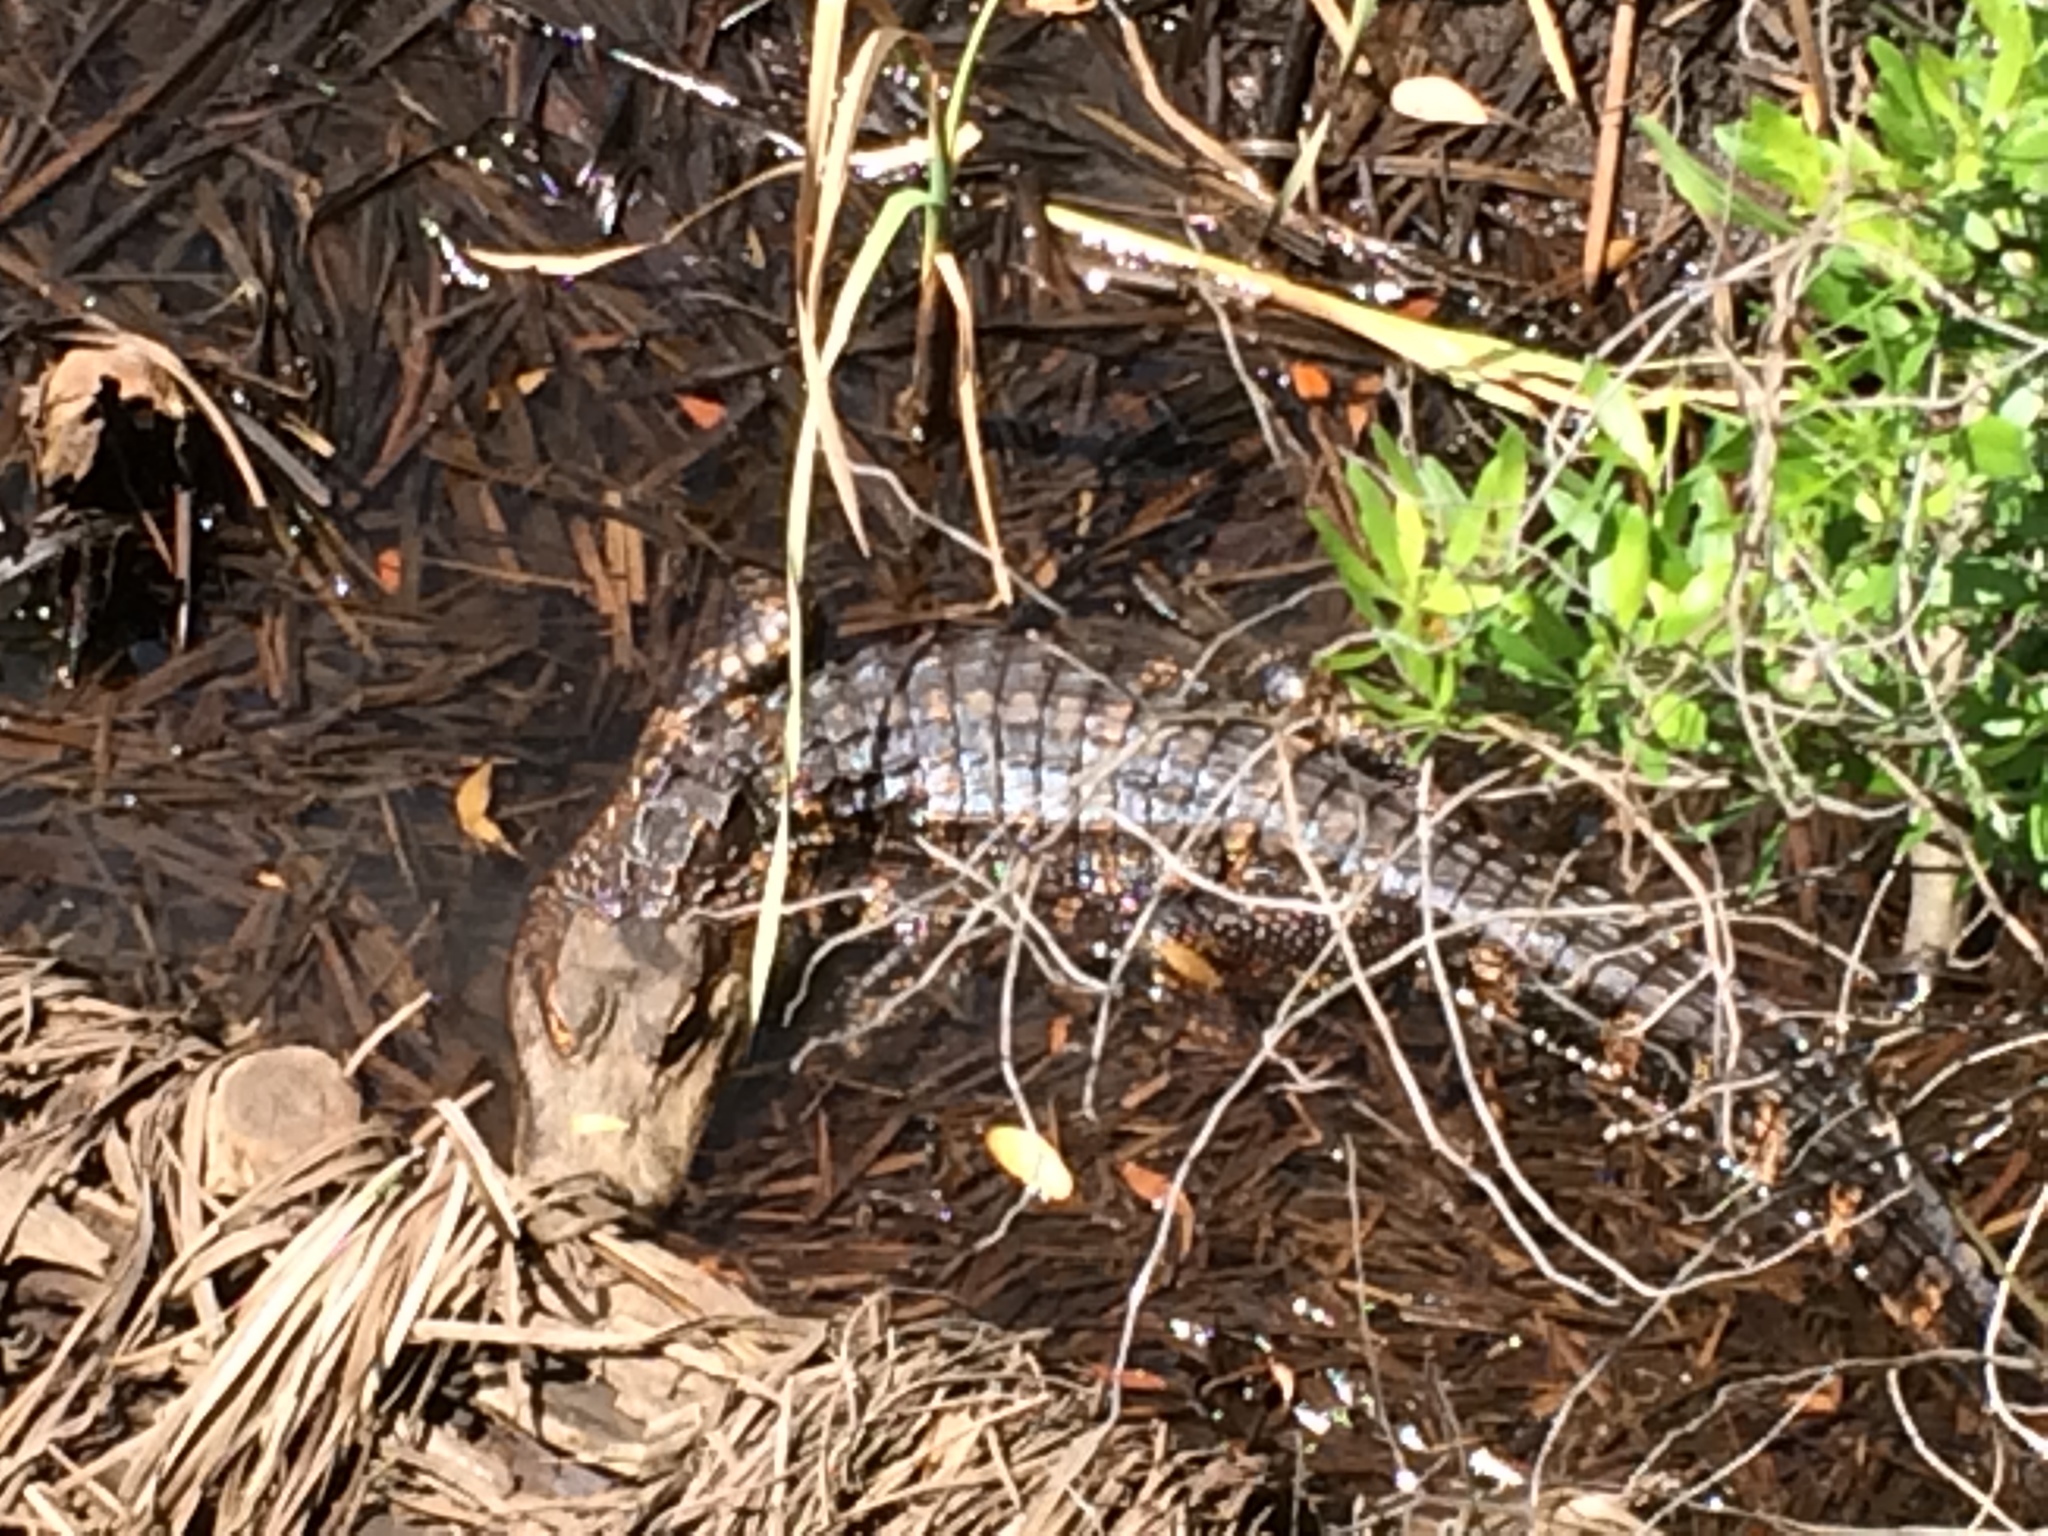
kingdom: Animalia
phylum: Chordata
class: Crocodylia
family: Alligatoridae
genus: Alligator
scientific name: Alligator mississippiensis
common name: American alligator
